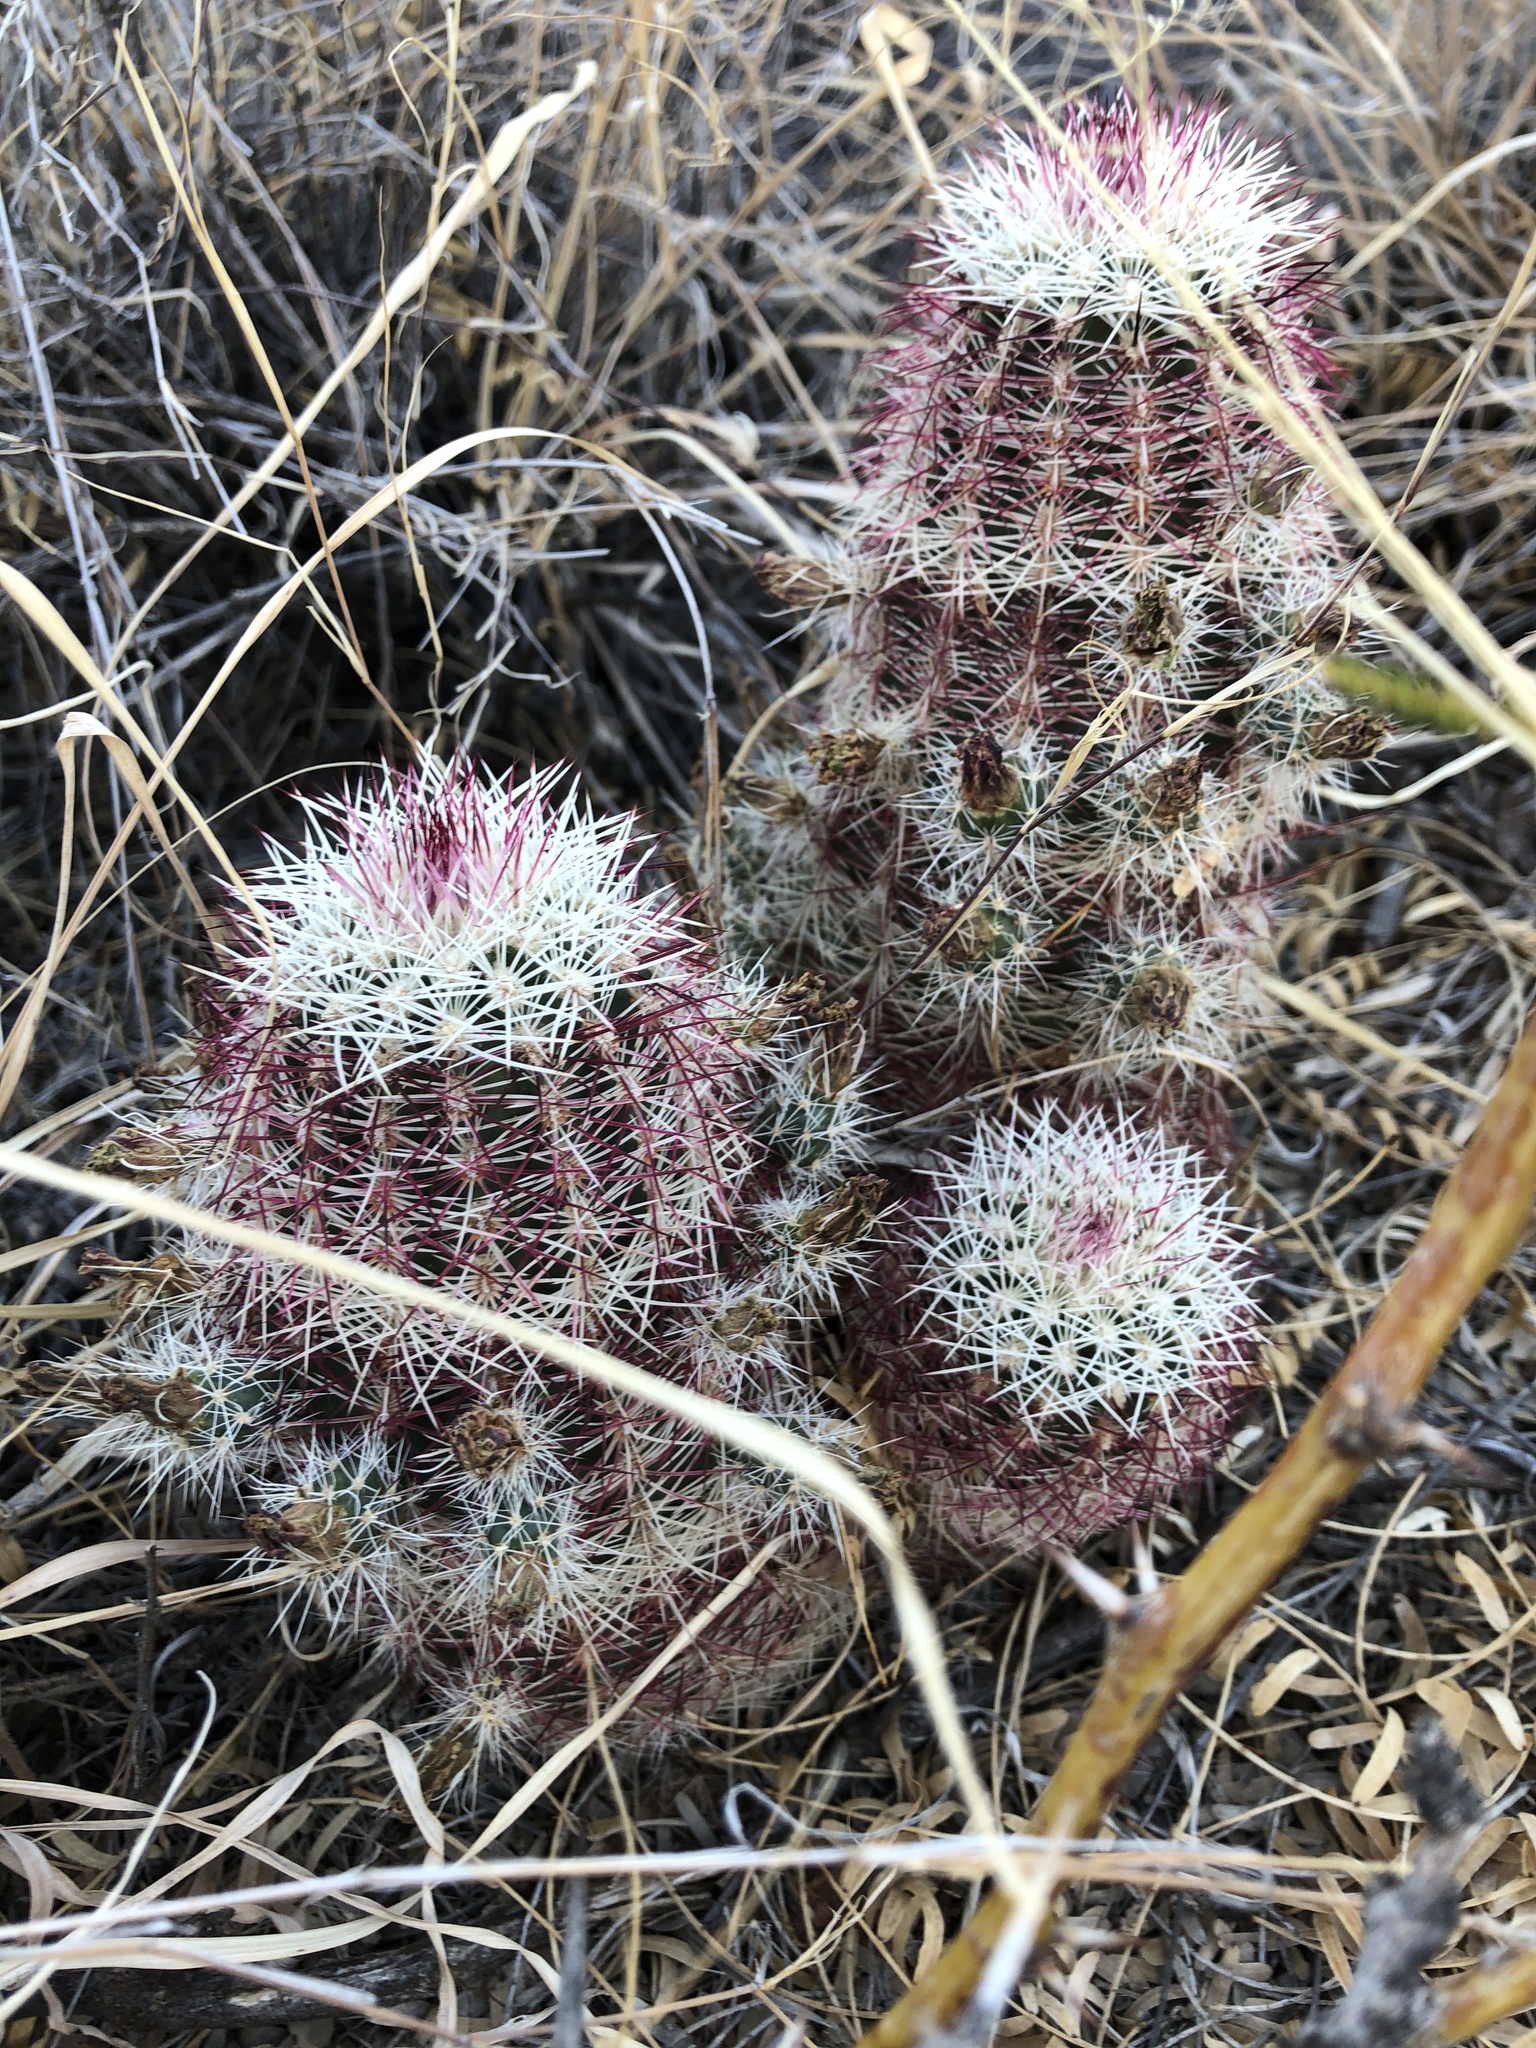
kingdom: Plantae
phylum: Tracheophyta
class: Magnoliopsida
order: Caryophyllales
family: Cactaceae
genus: Echinocereus
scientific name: Echinocereus viridiflorus
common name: Nylon hedgehog cactus
